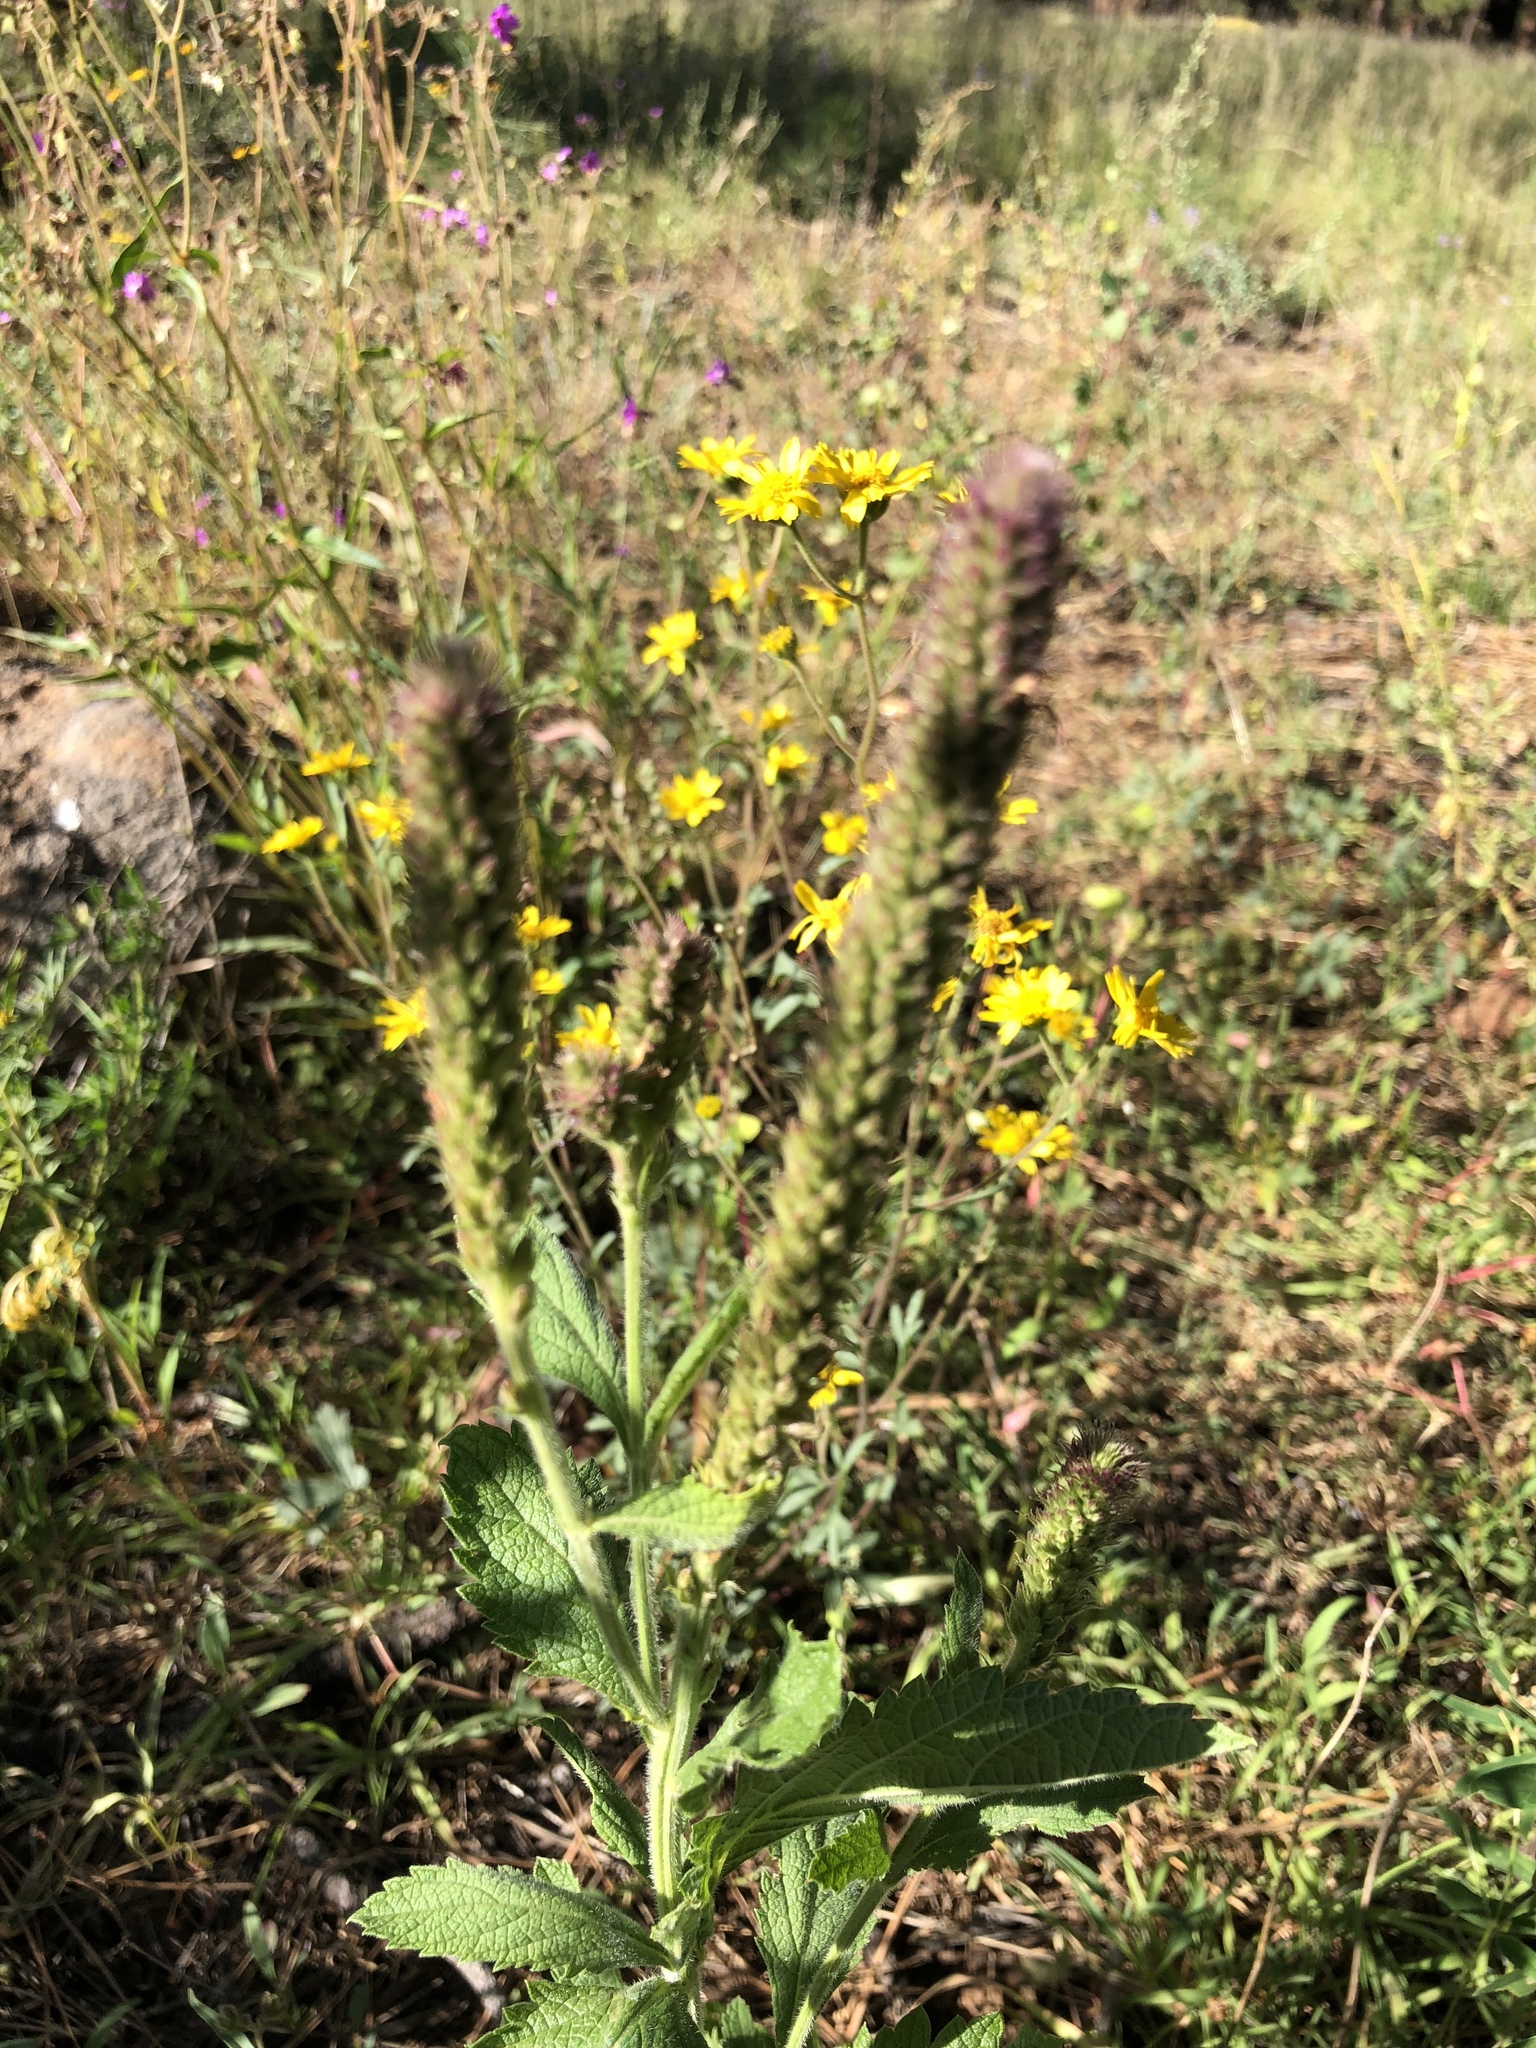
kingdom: Plantae
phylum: Tracheophyta
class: Magnoliopsida
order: Lamiales
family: Verbenaceae
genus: Verbena
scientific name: Verbena macdougalii
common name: New mexico vervain
